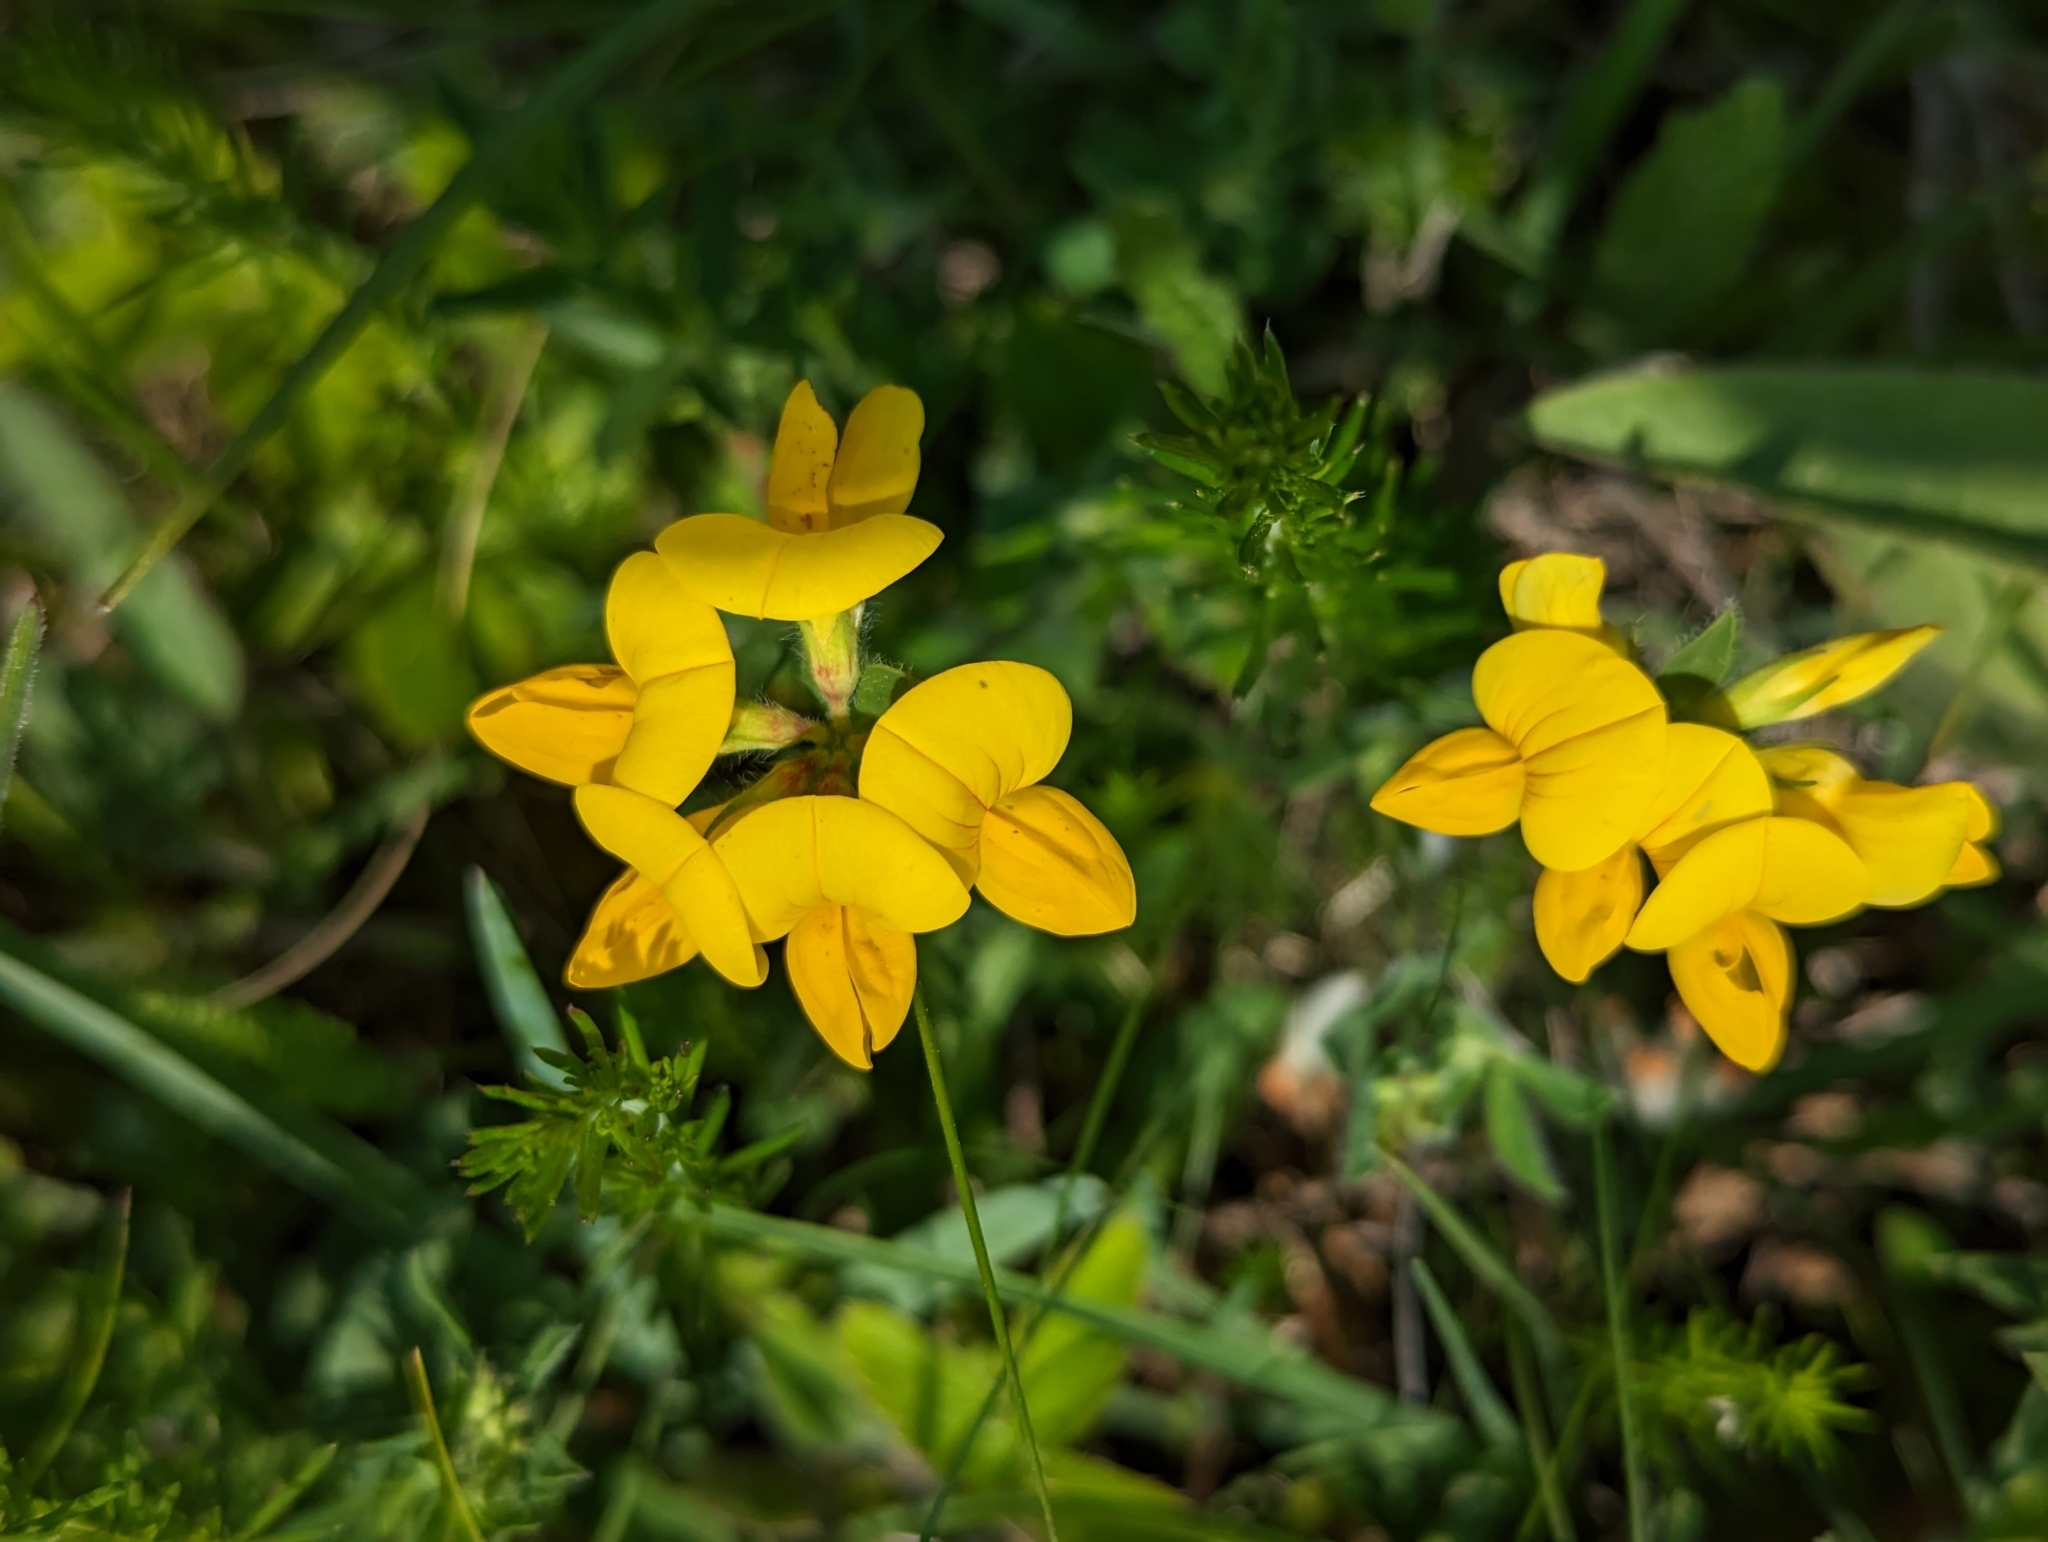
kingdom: Plantae
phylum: Tracheophyta
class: Magnoliopsida
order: Fabales
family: Fabaceae
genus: Lotus
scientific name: Lotus corniculatus
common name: Common bird's-foot-trefoil
